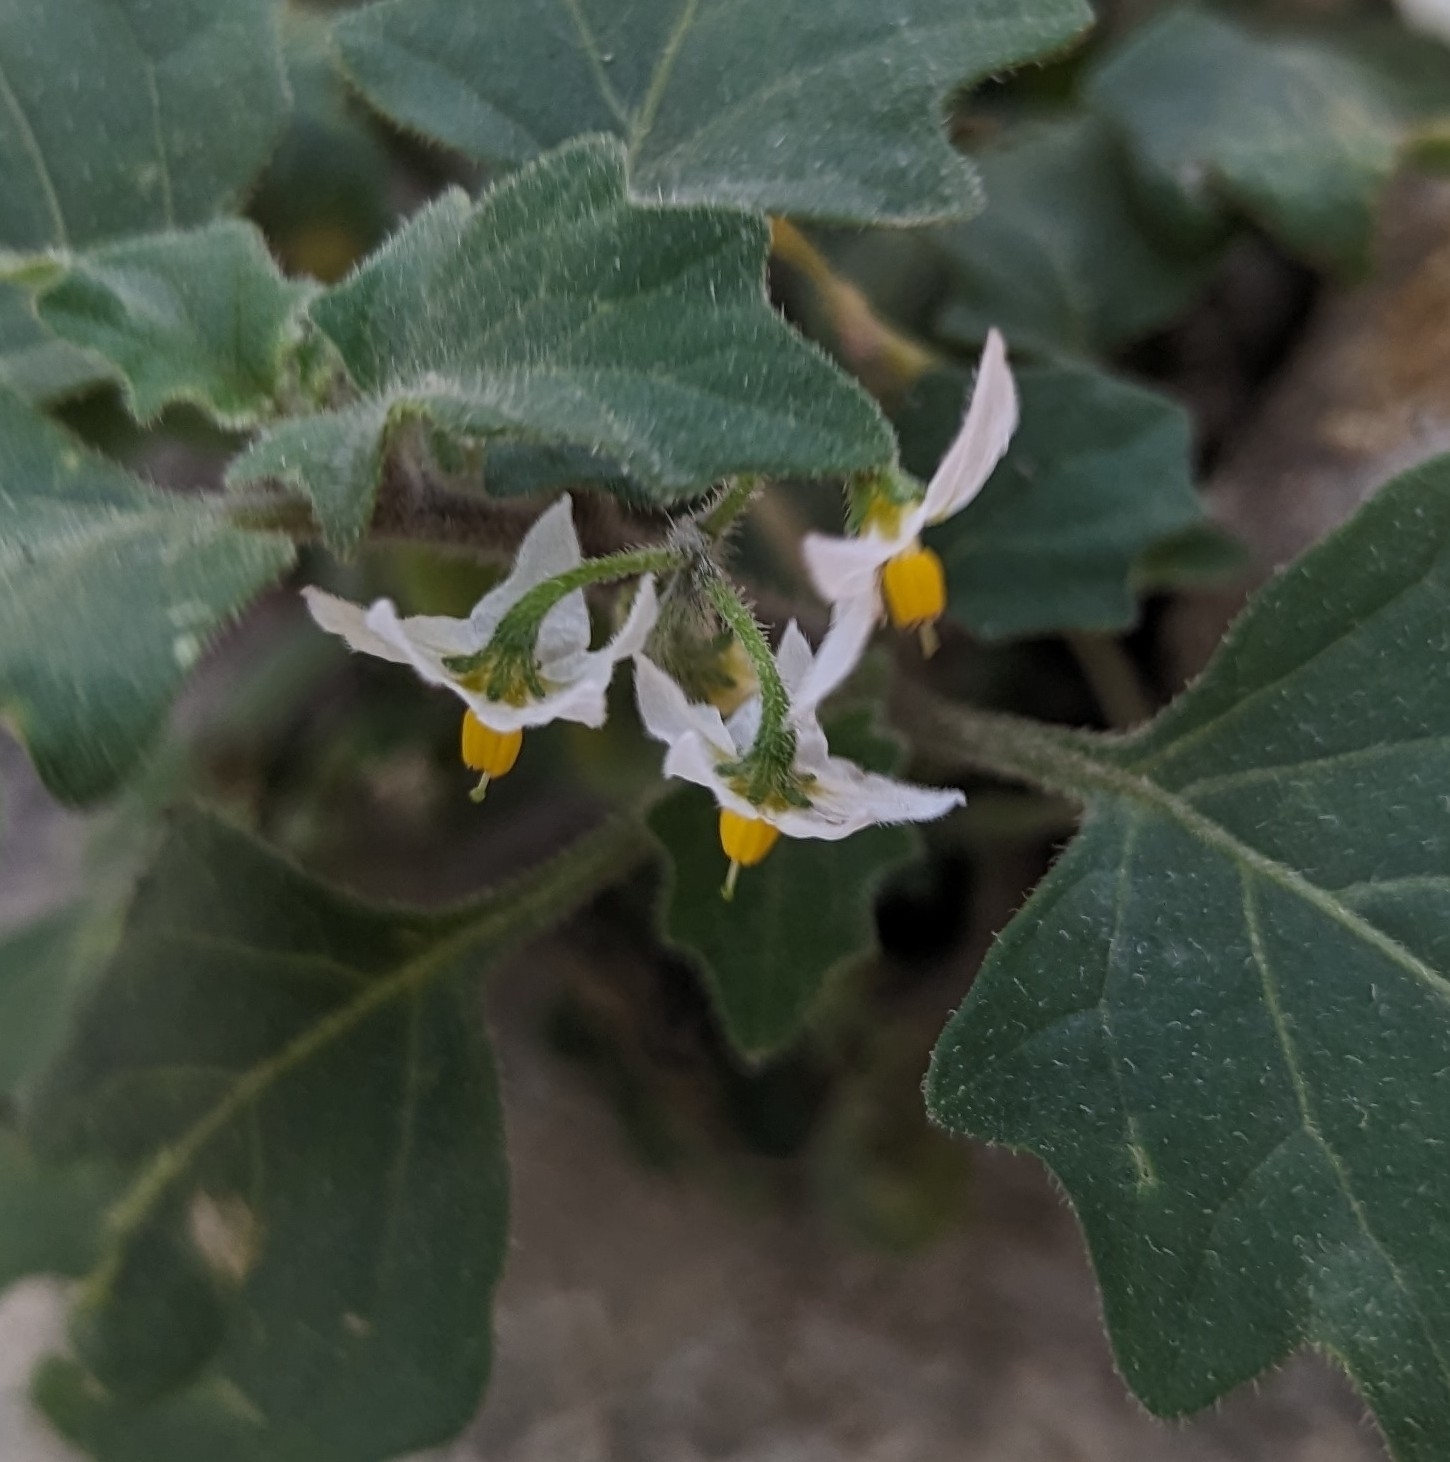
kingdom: Plantae
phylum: Tracheophyta
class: Magnoliopsida
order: Solanales
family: Solanaceae
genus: Solanum
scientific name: Solanum nigrum
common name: Black nightshade
